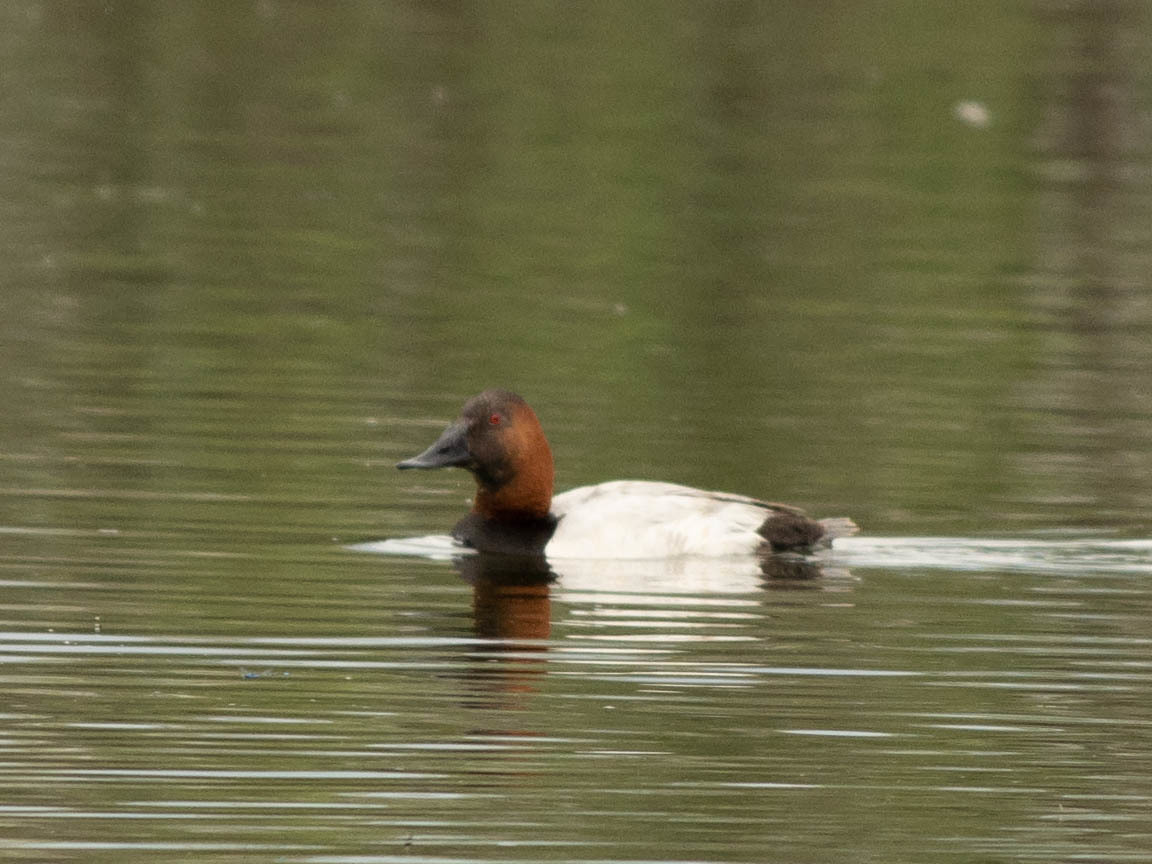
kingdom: Animalia
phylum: Chordata
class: Aves
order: Anseriformes
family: Anatidae
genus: Aythya
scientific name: Aythya valisineria
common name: Canvasback
